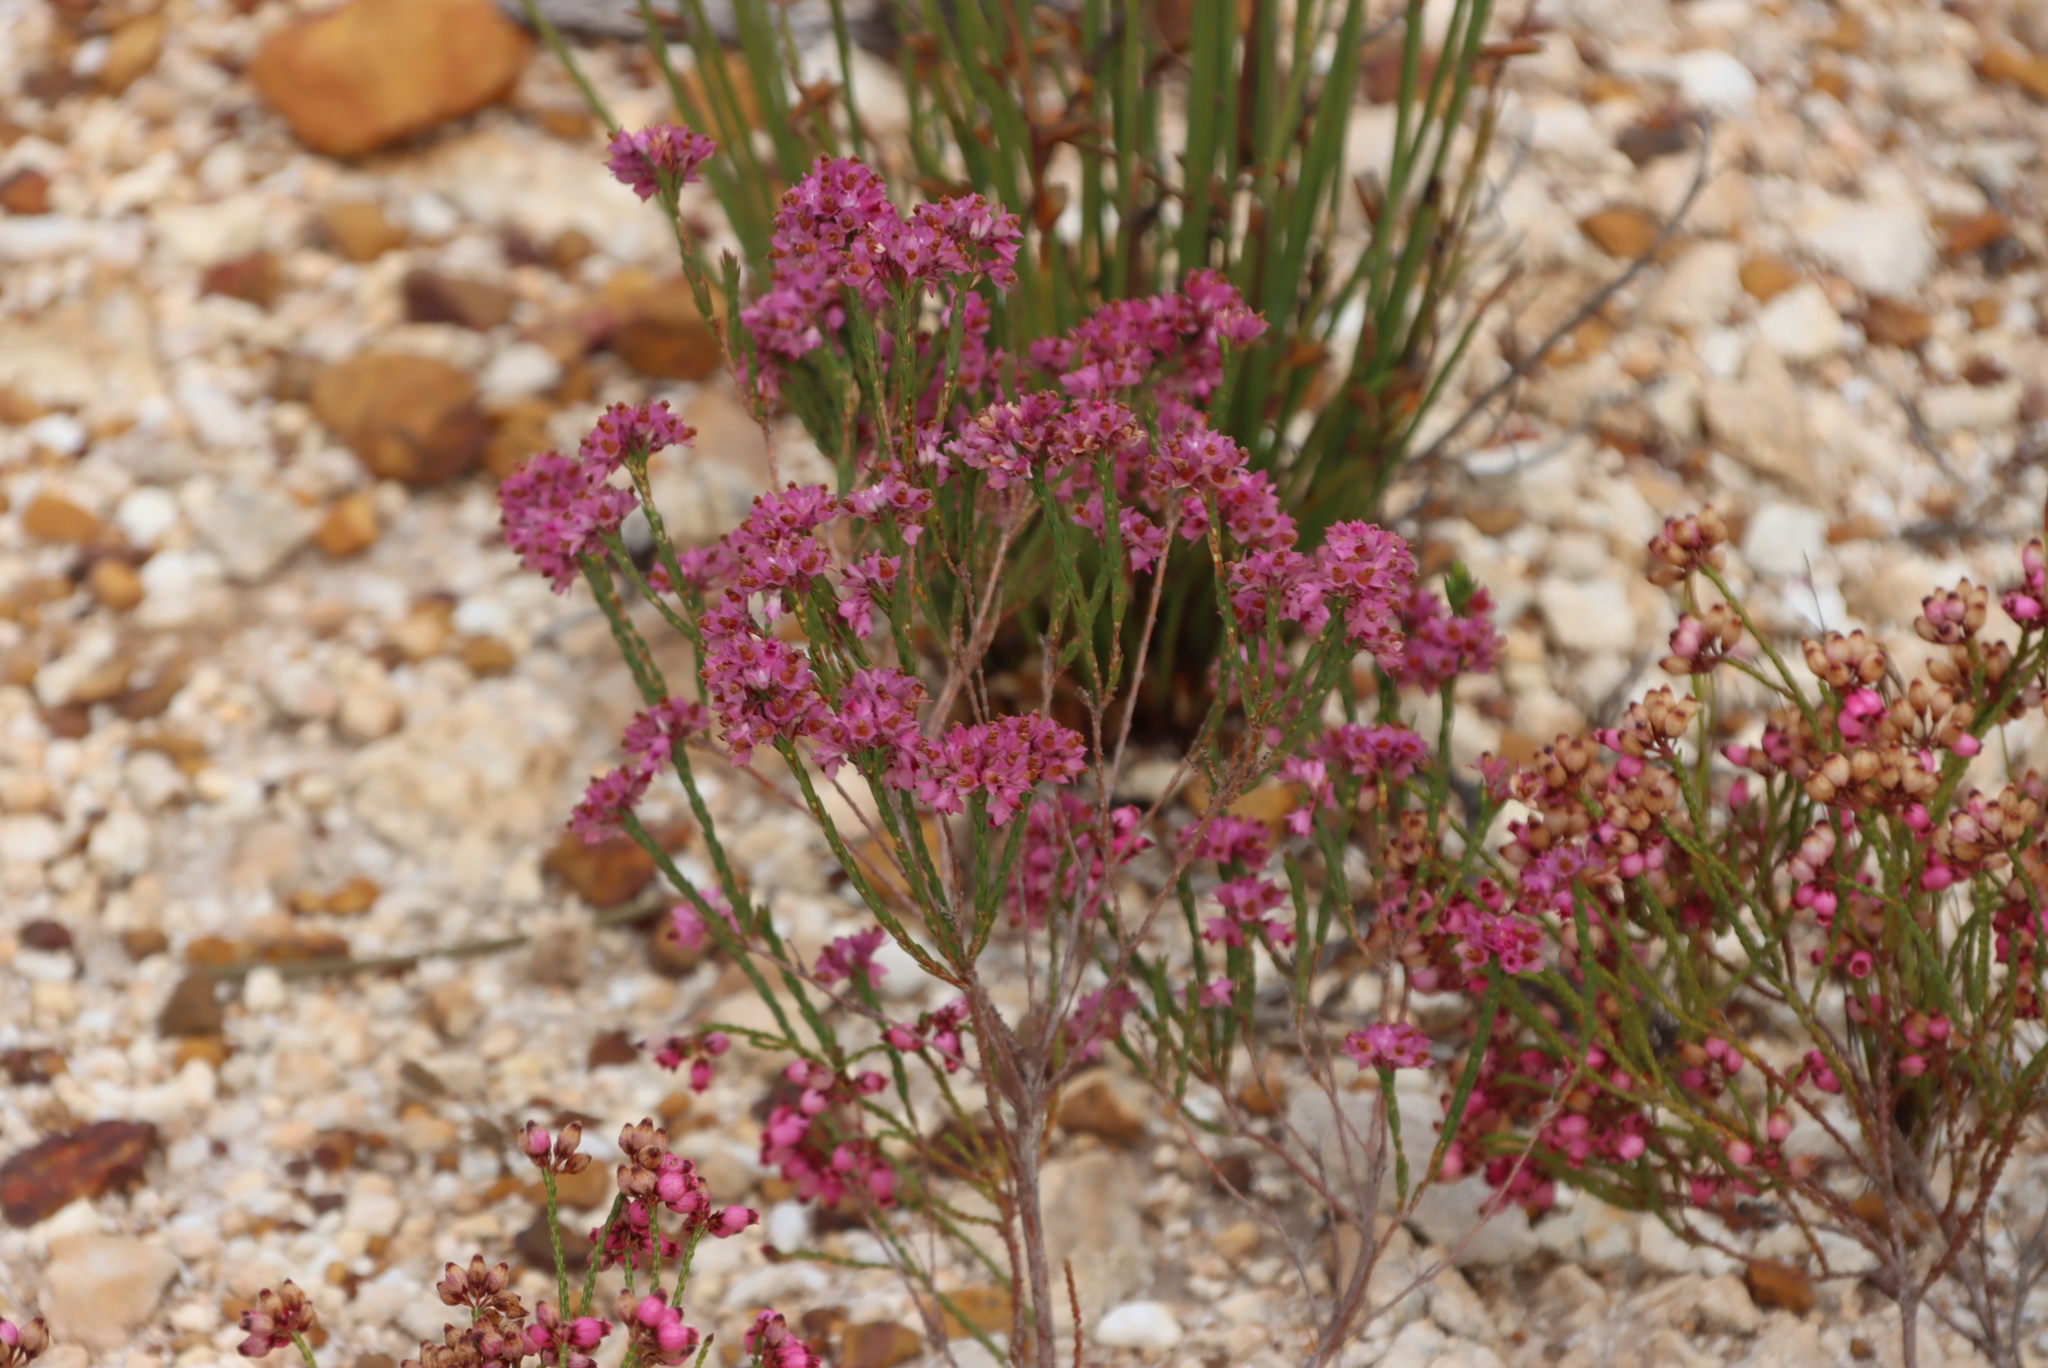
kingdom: Plantae
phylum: Tracheophyta
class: Magnoliopsida
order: Ericales
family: Ericaceae
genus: Erica
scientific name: Erica corifolia
